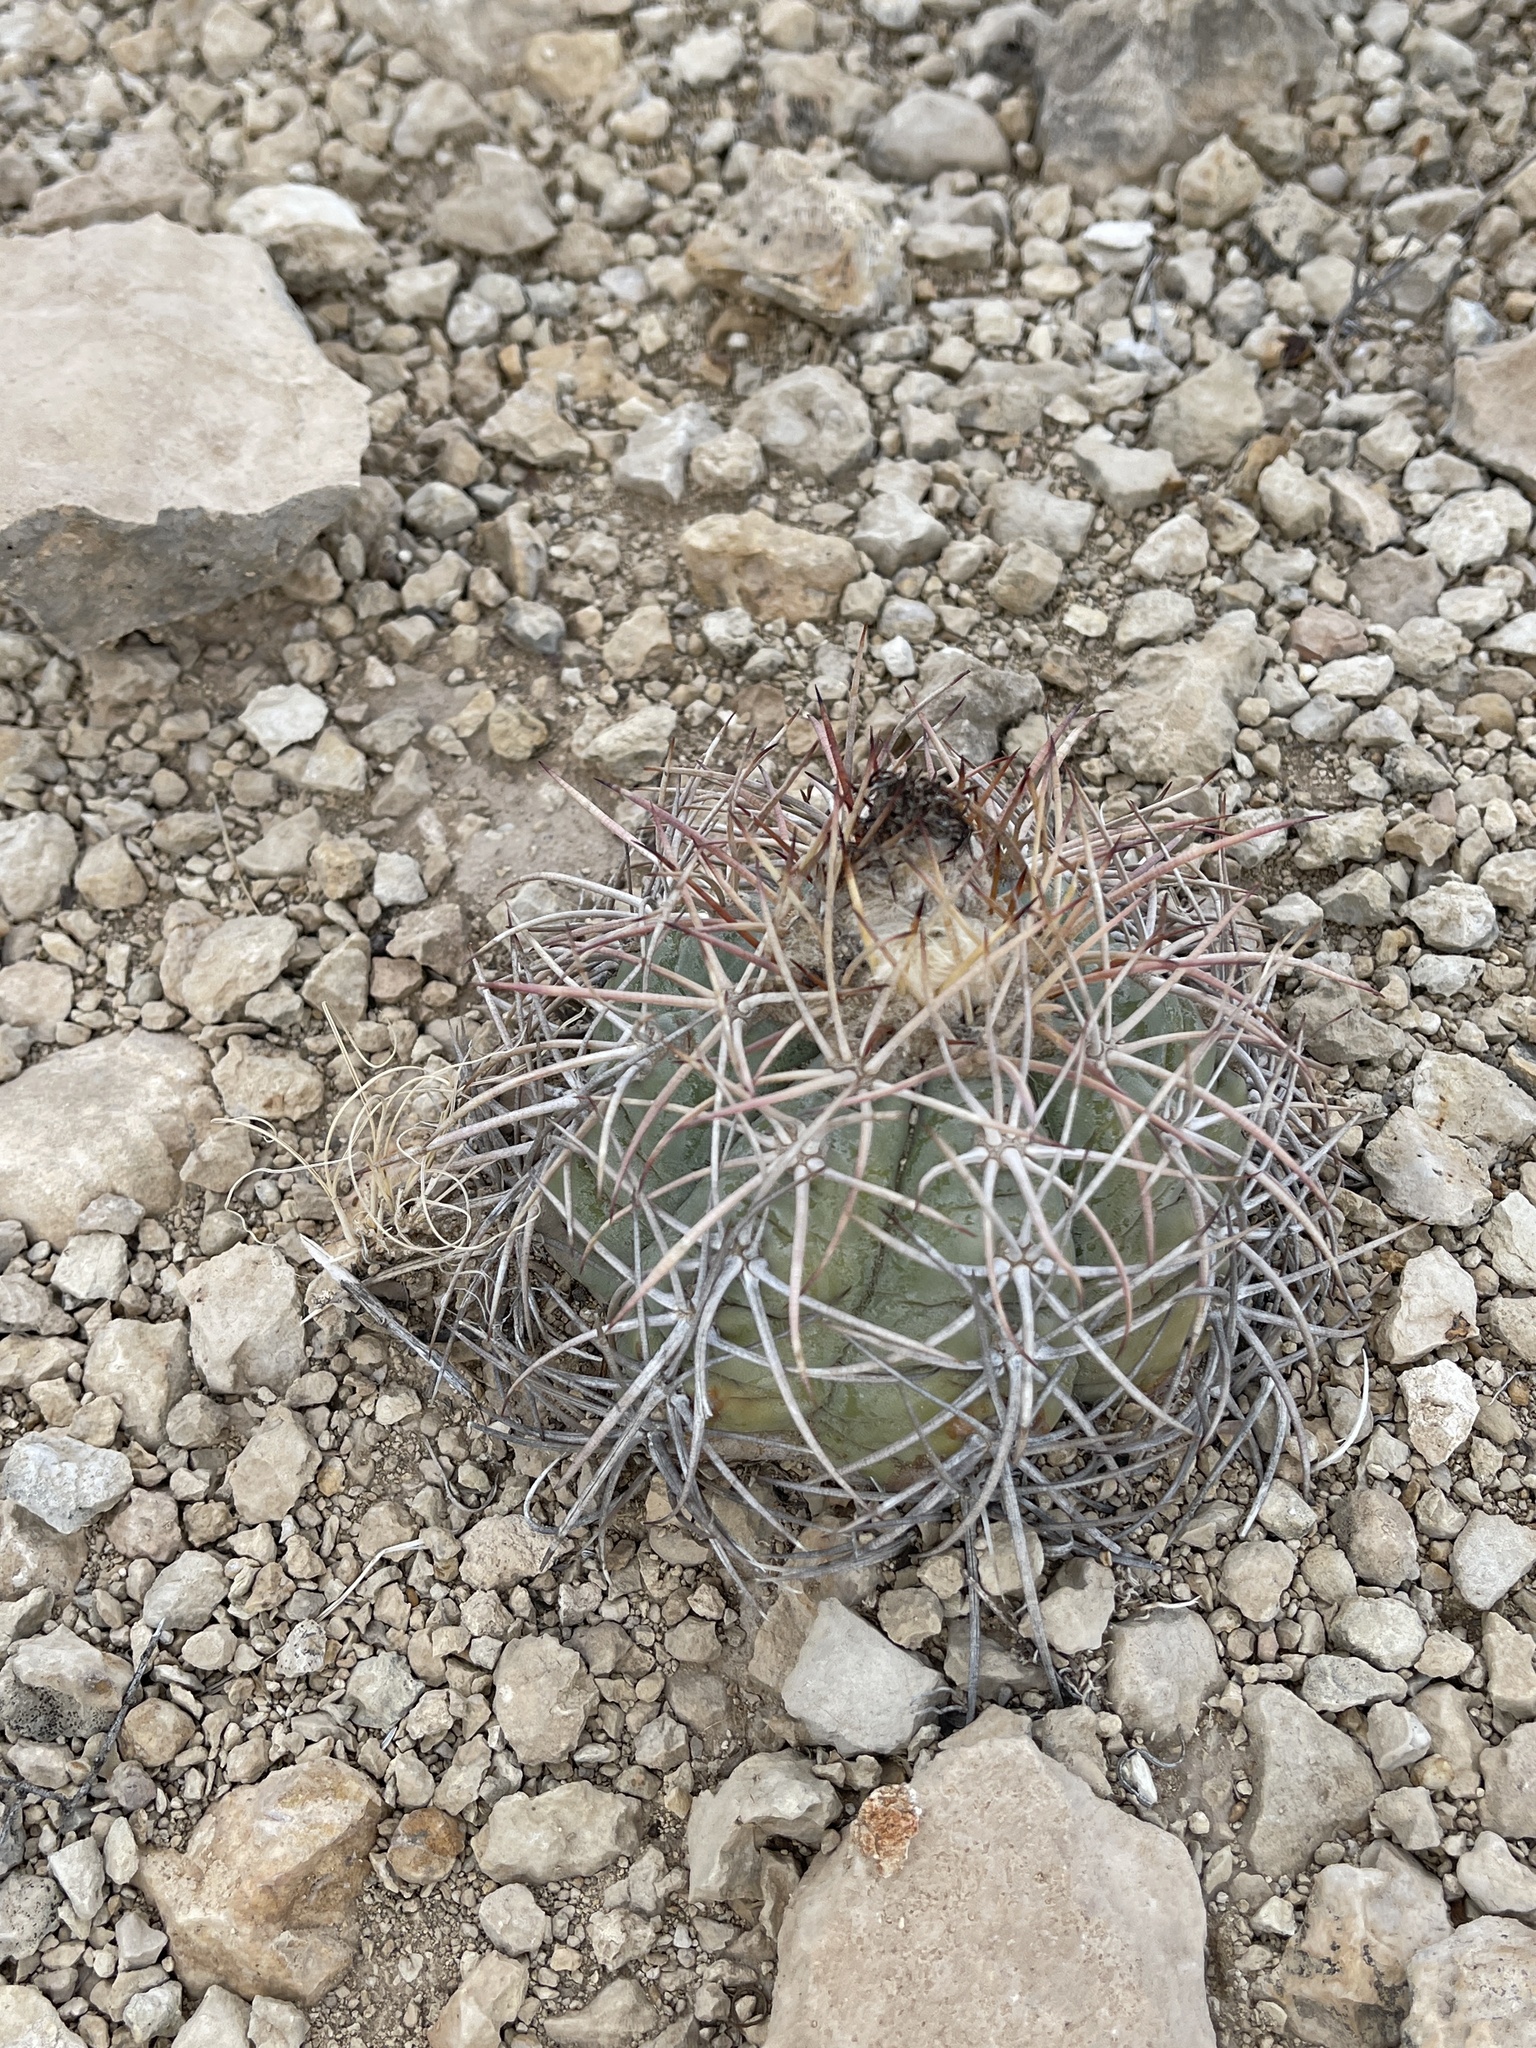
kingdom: Plantae
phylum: Tracheophyta
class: Magnoliopsida
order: Caryophyllales
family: Cactaceae
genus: Echinocactus
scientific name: Echinocactus horizonthalonius
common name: Devilshead
